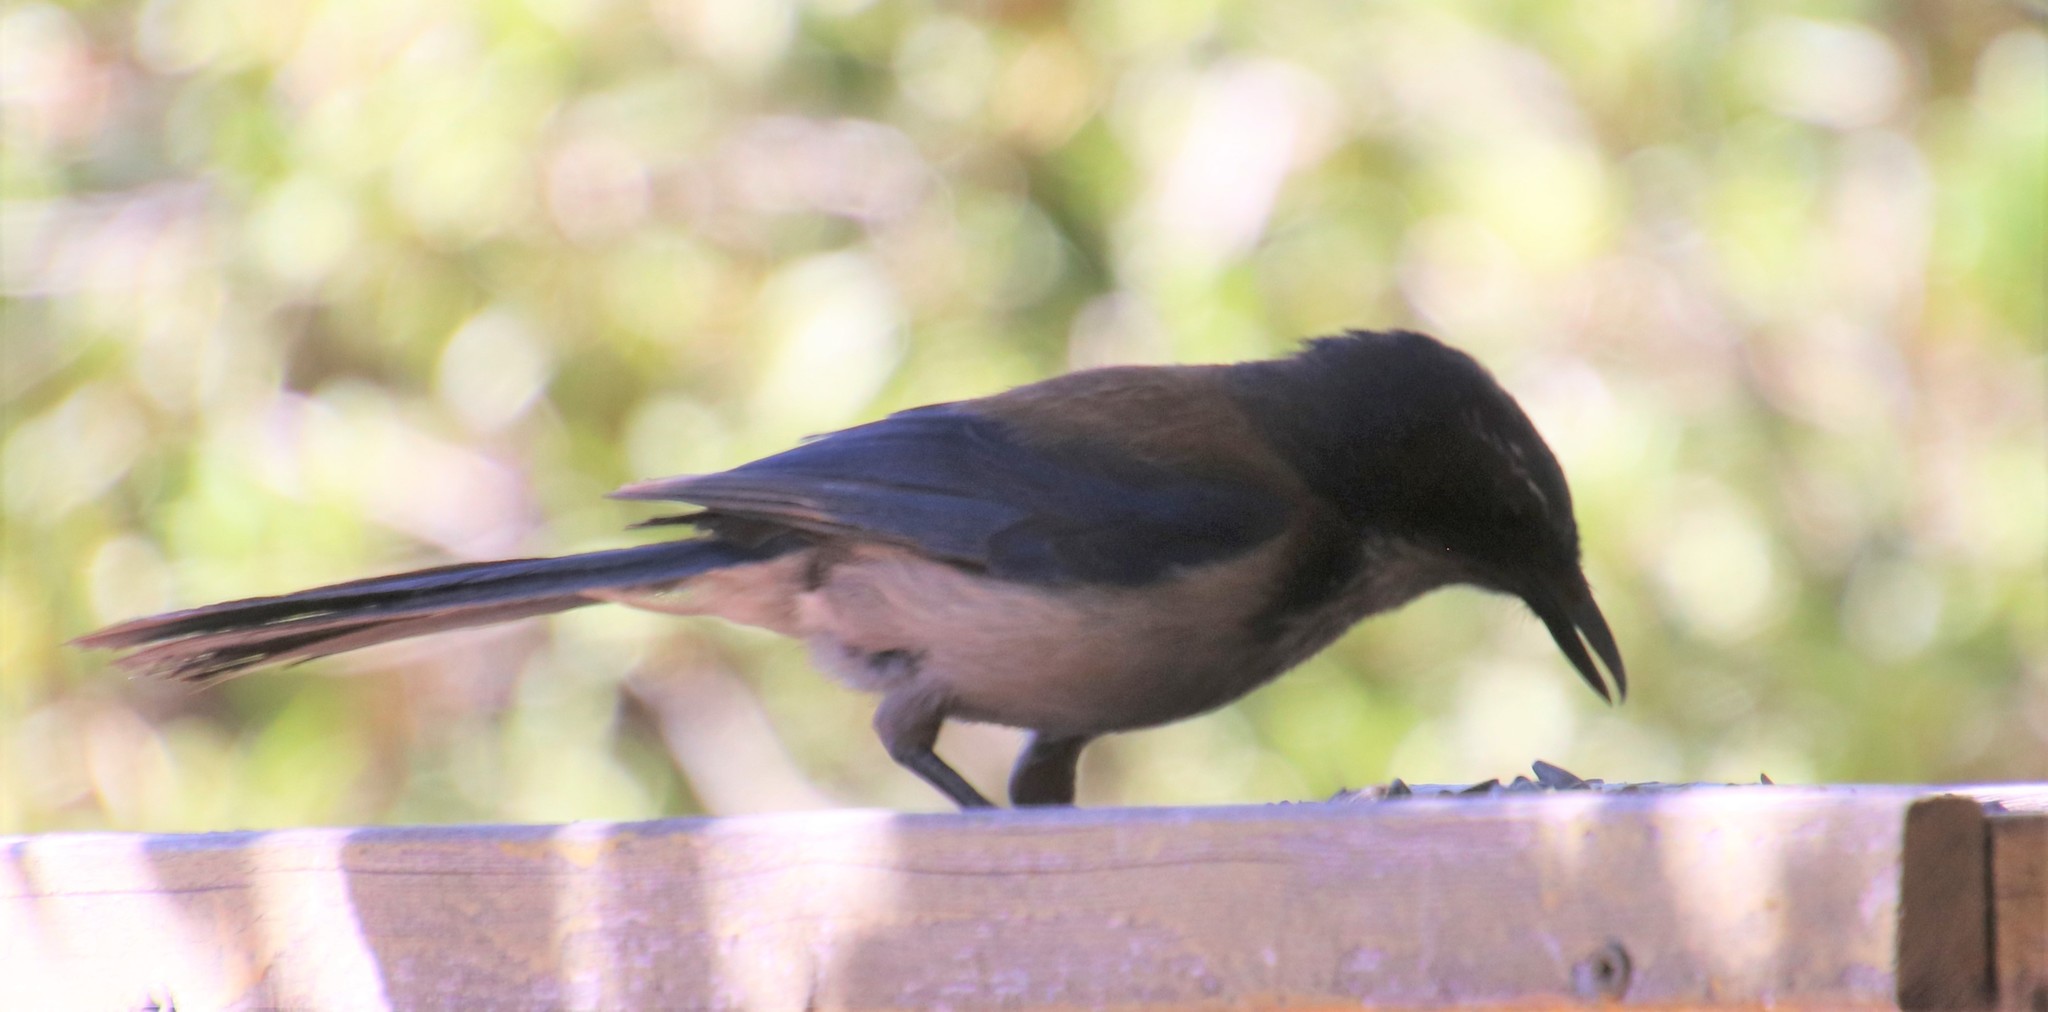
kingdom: Animalia
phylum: Chordata
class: Aves
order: Passeriformes
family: Corvidae
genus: Aphelocoma
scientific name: Aphelocoma californica
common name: California scrub-jay
